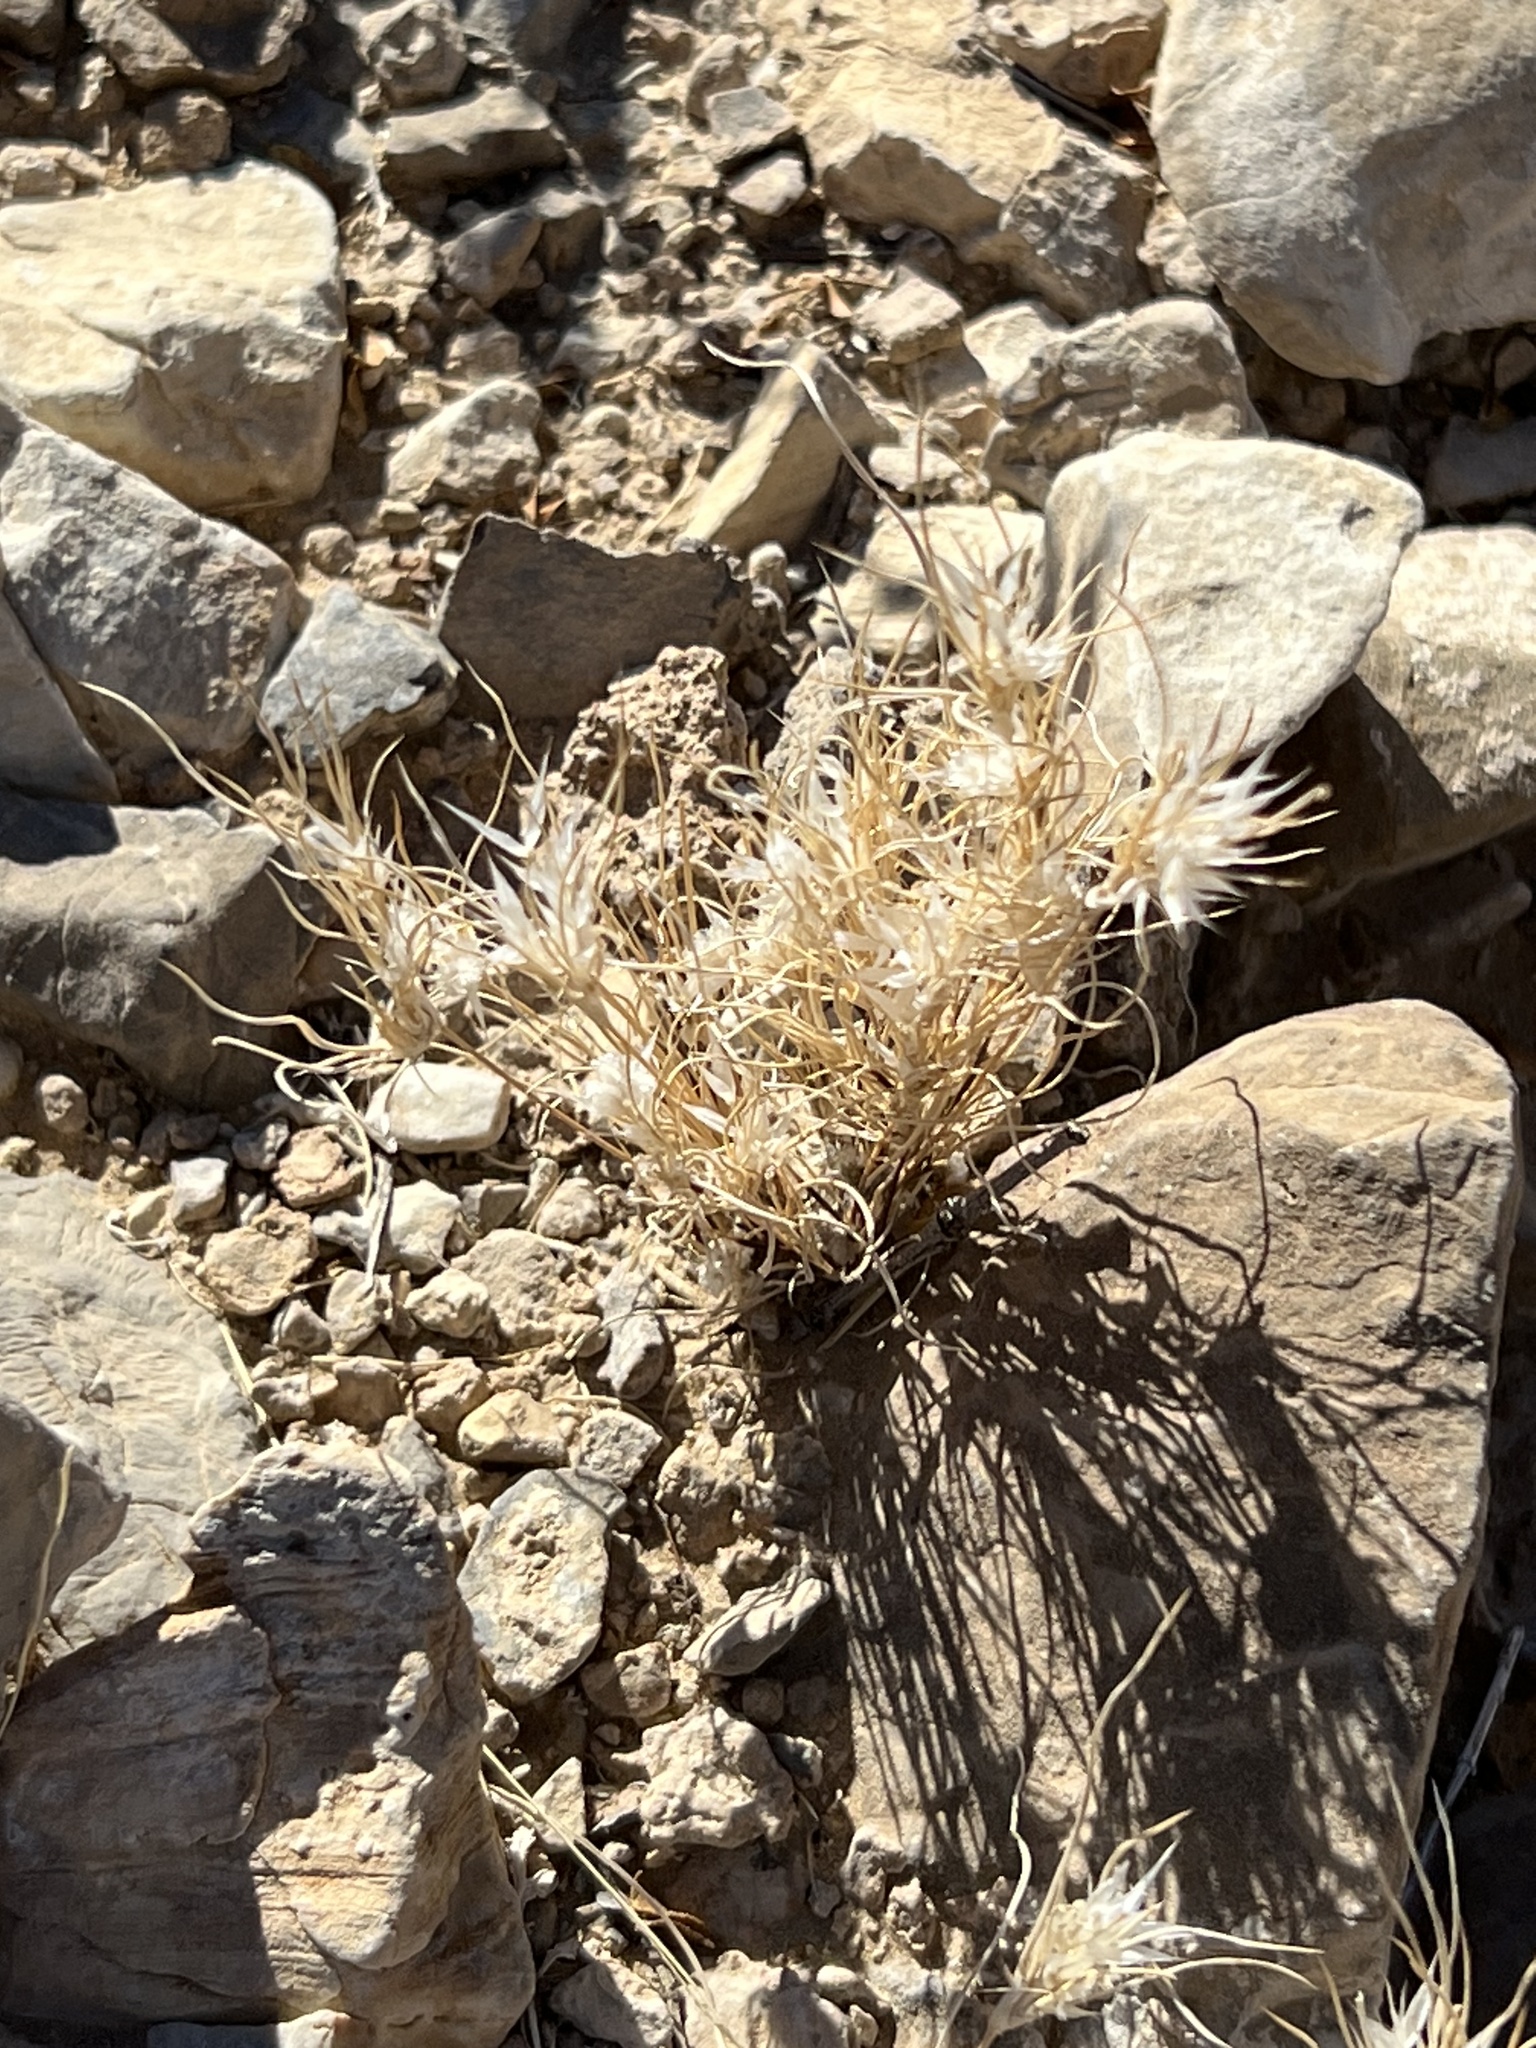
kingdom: Plantae
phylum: Tracheophyta
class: Liliopsida
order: Poales
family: Poaceae
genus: Dasyochloa
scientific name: Dasyochloa pulchella
